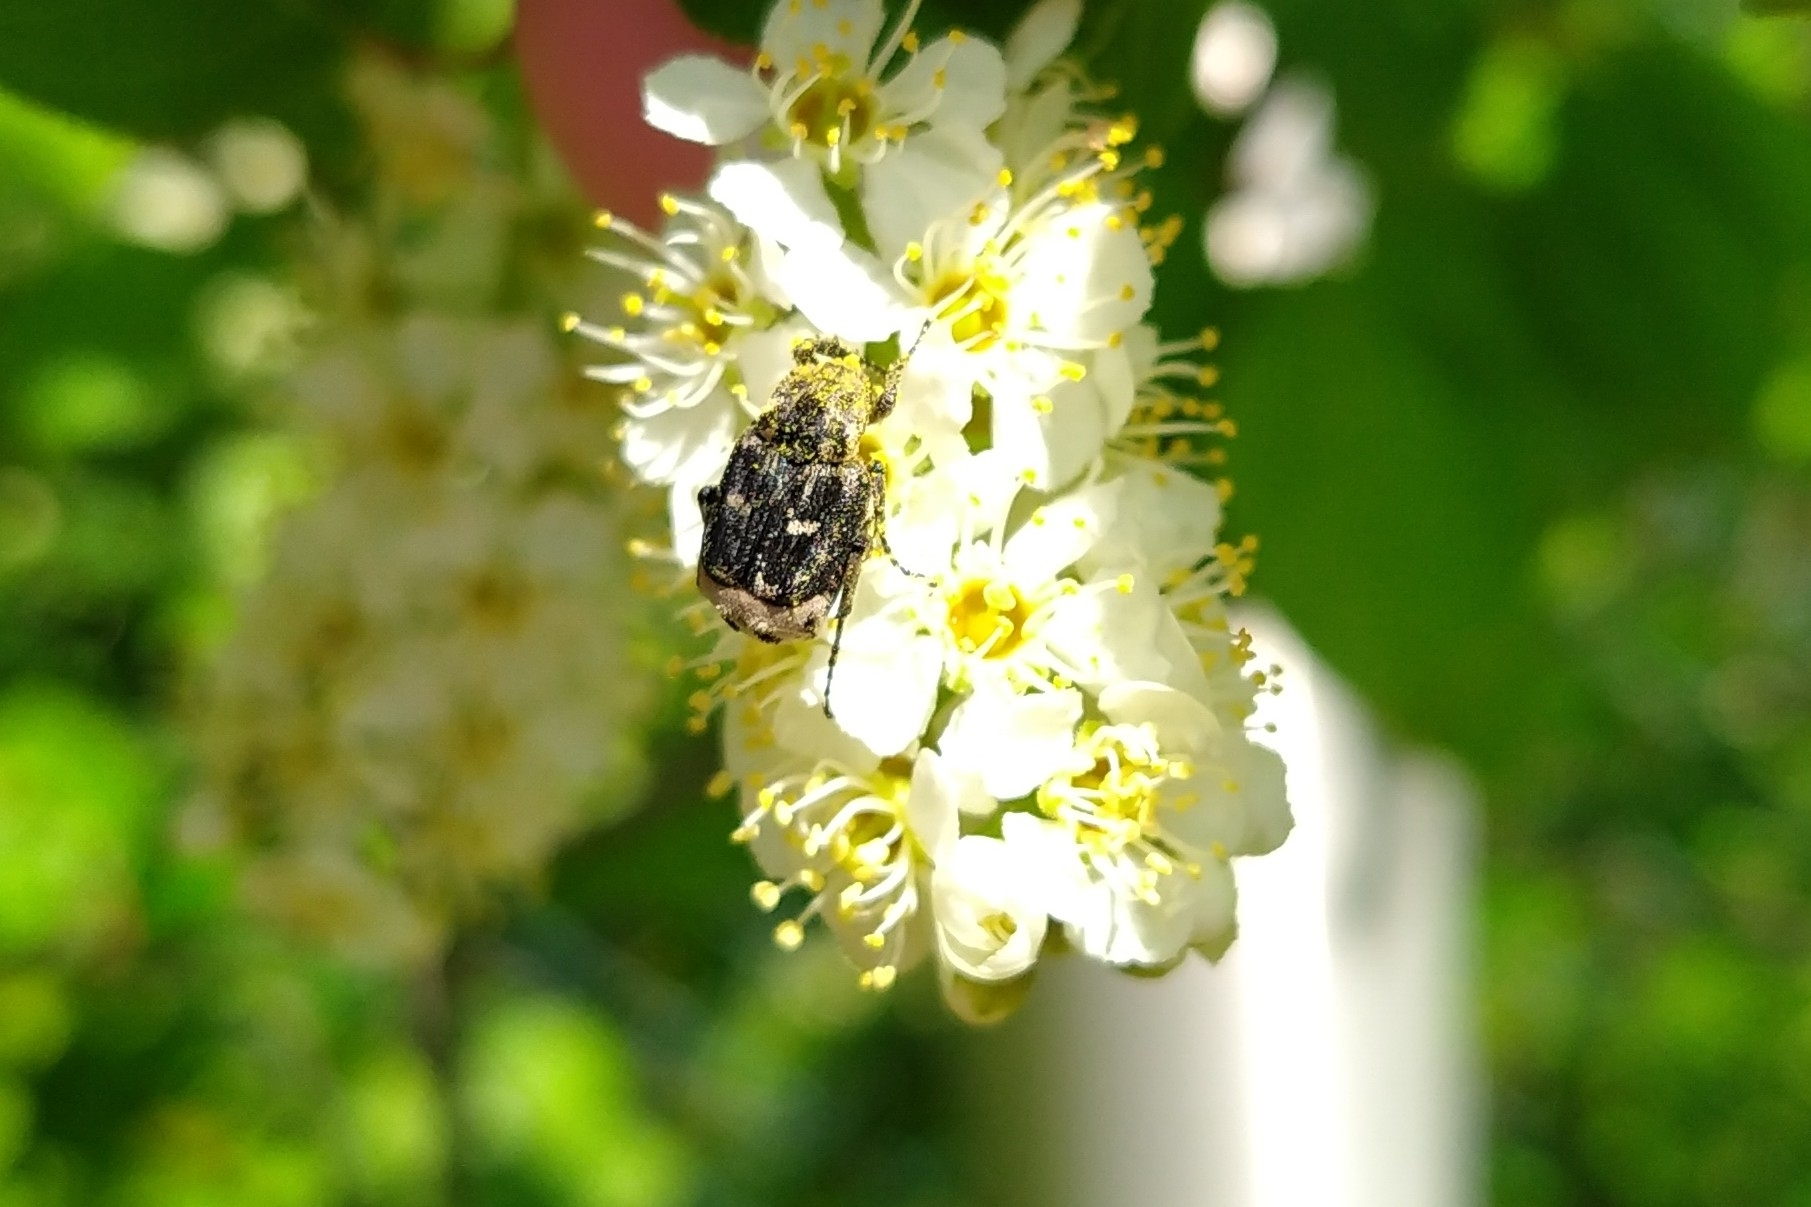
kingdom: Animalia
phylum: Arthropoda
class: Insecta
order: Coleoptera
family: Scarabaeidae
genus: Valgus
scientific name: Valgus hemipterus
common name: Bug flower chafer
